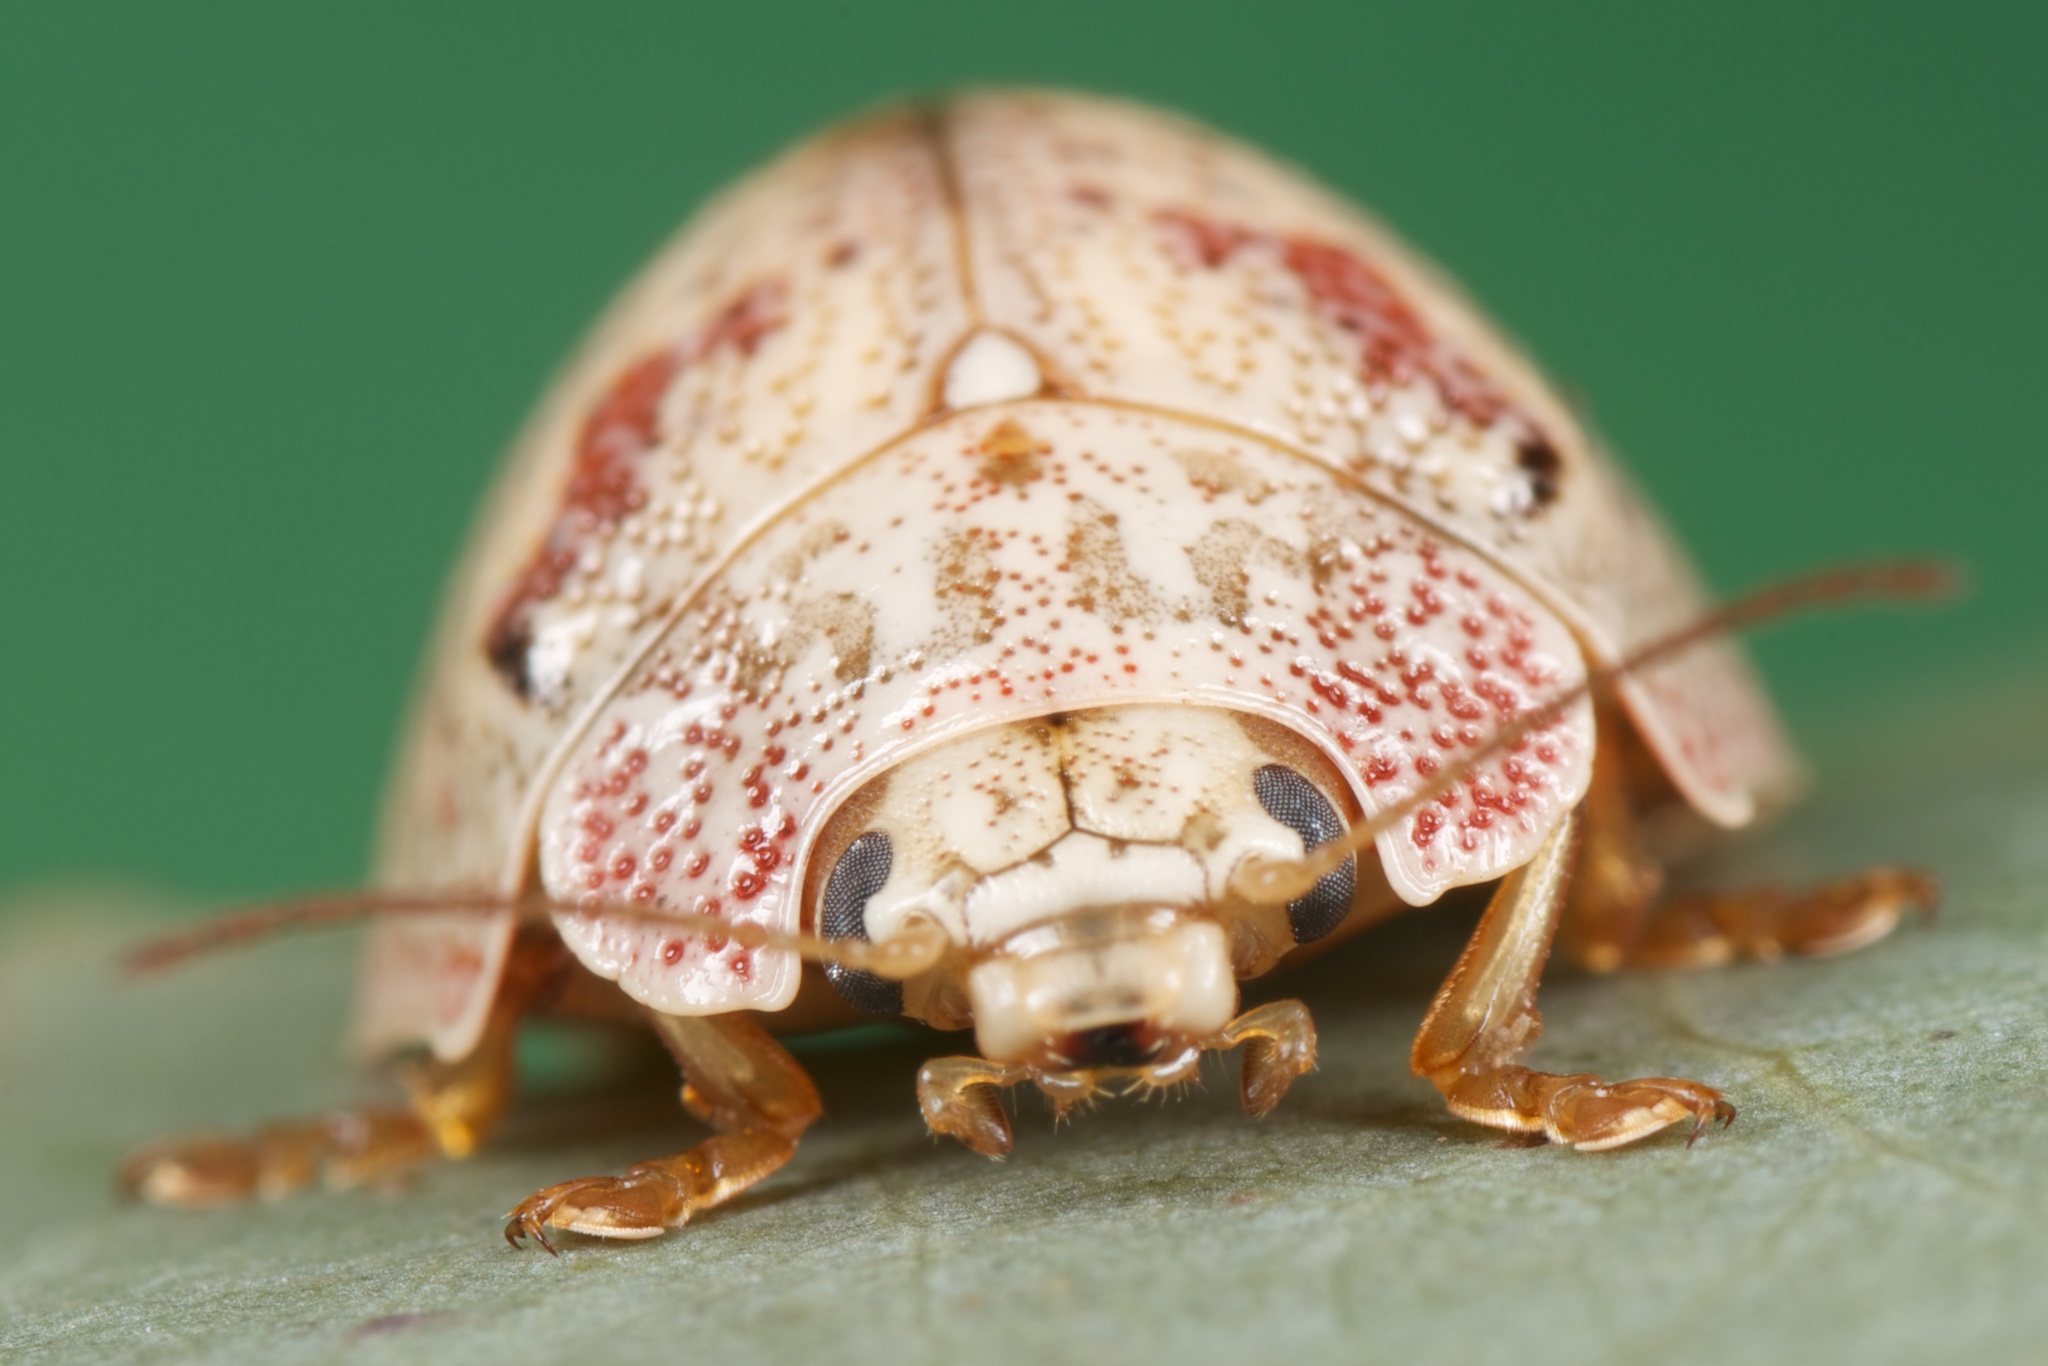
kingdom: Animalia
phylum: Arthropoda
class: Insecta
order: Coleoptera
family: Chrysomelidae
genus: Paropsis
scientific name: Paropsis charybdis
